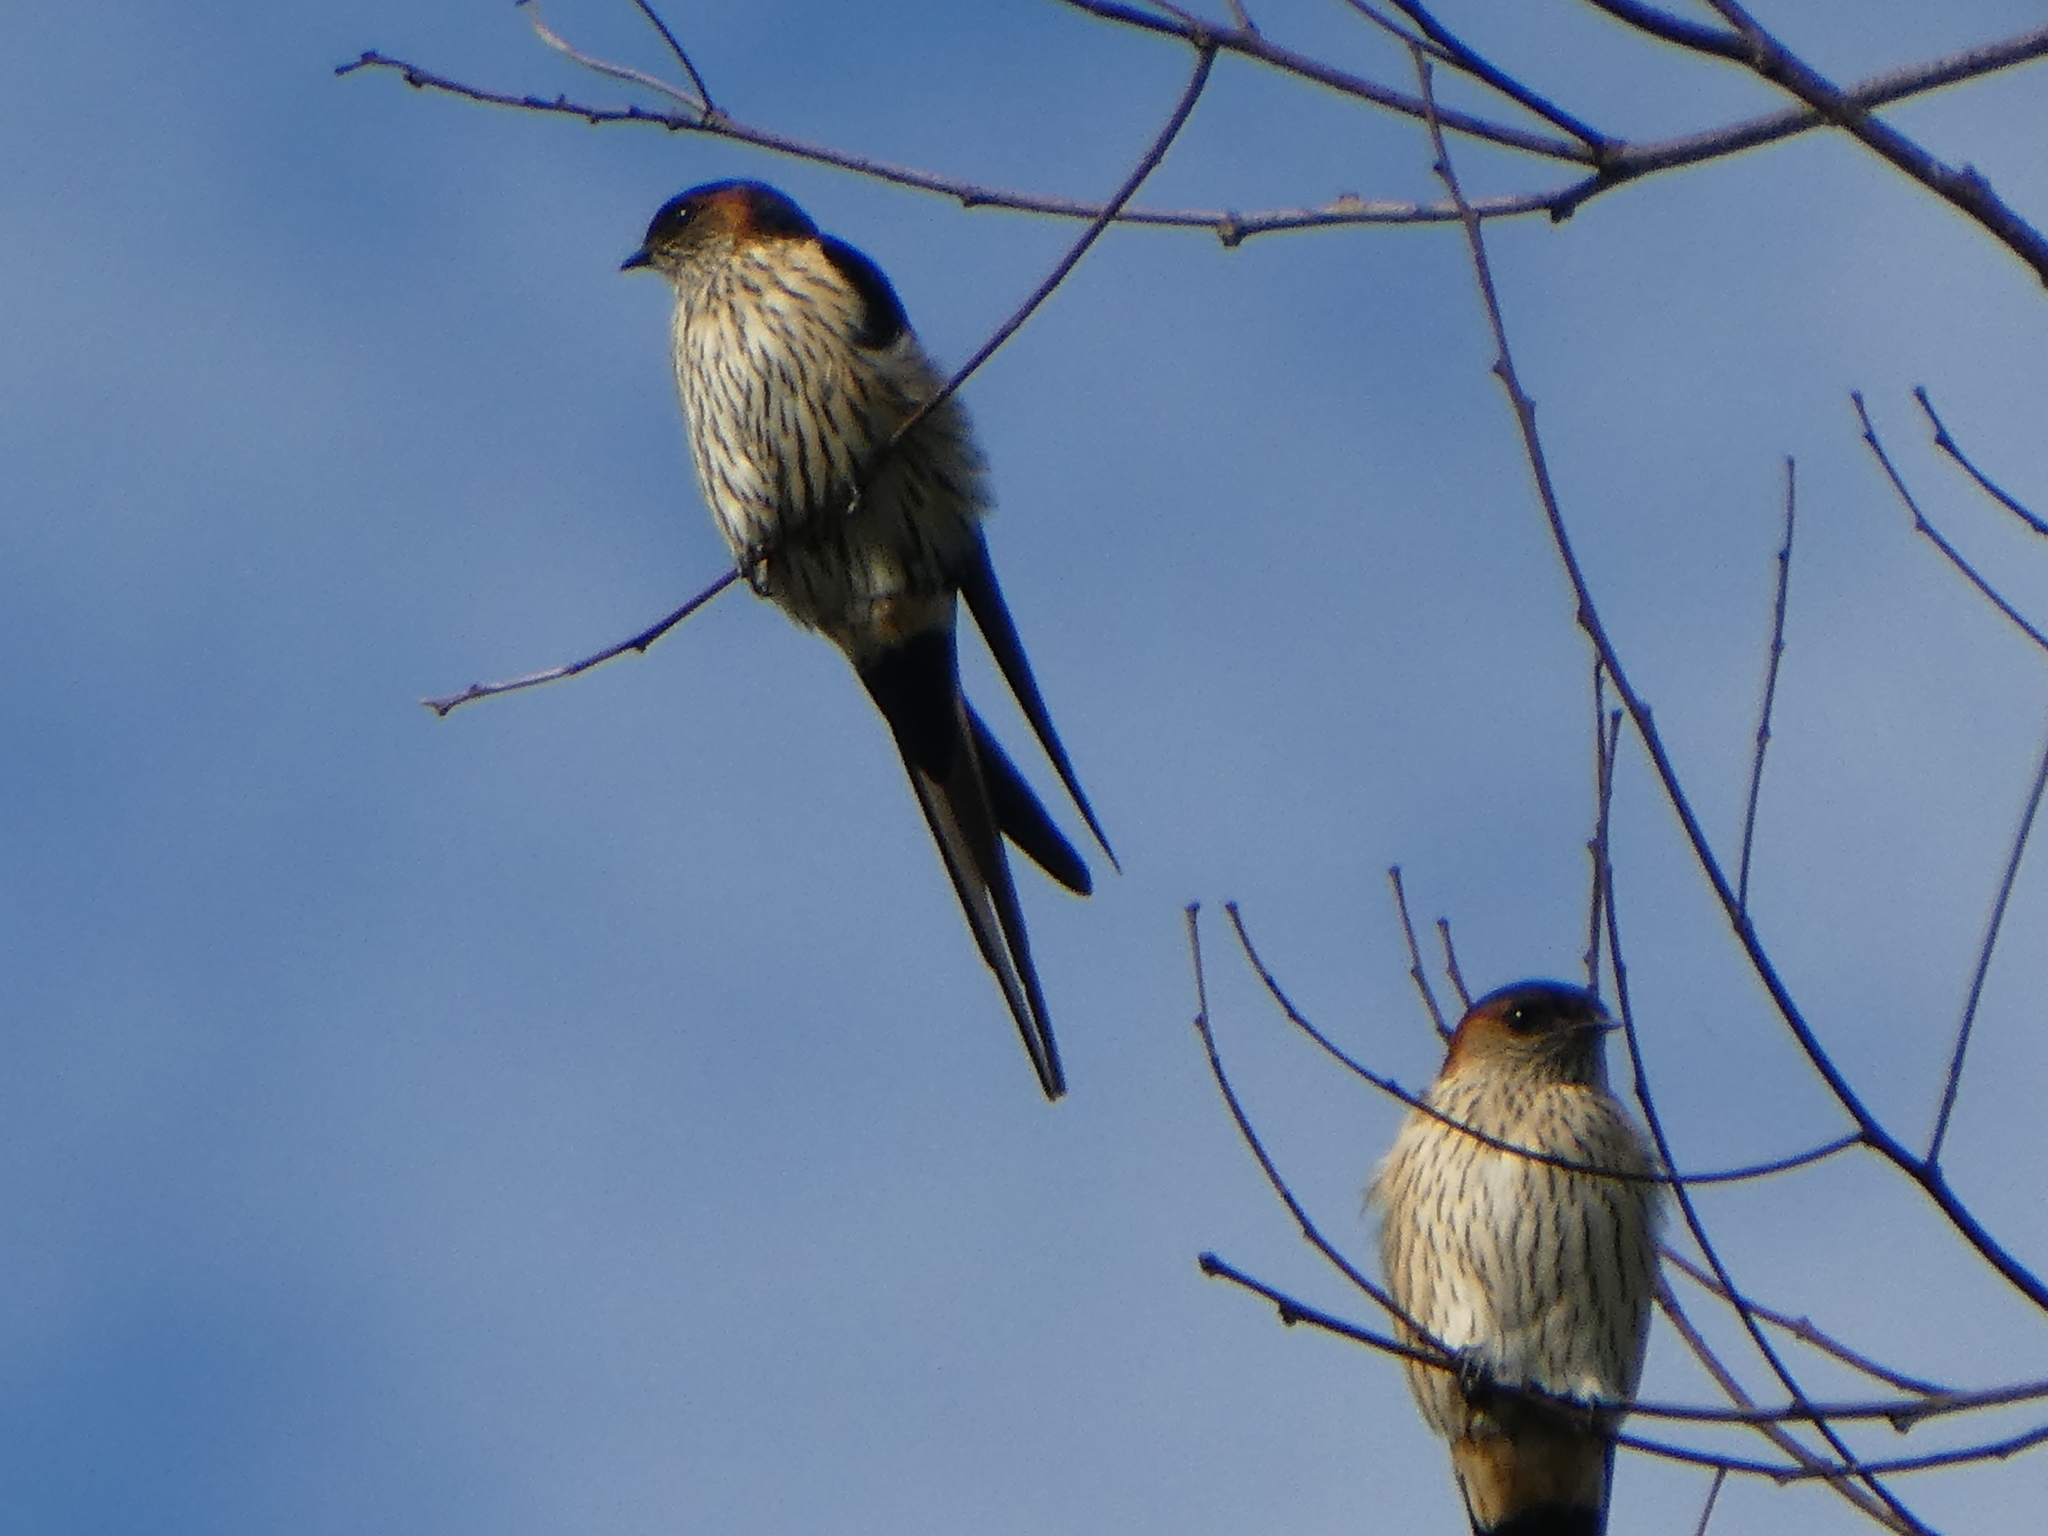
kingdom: Animalia
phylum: Chordata
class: Aves
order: Passeriformes
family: Hirundinidae
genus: Cecropis
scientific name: Cecropis striolata
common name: Striated swallow
